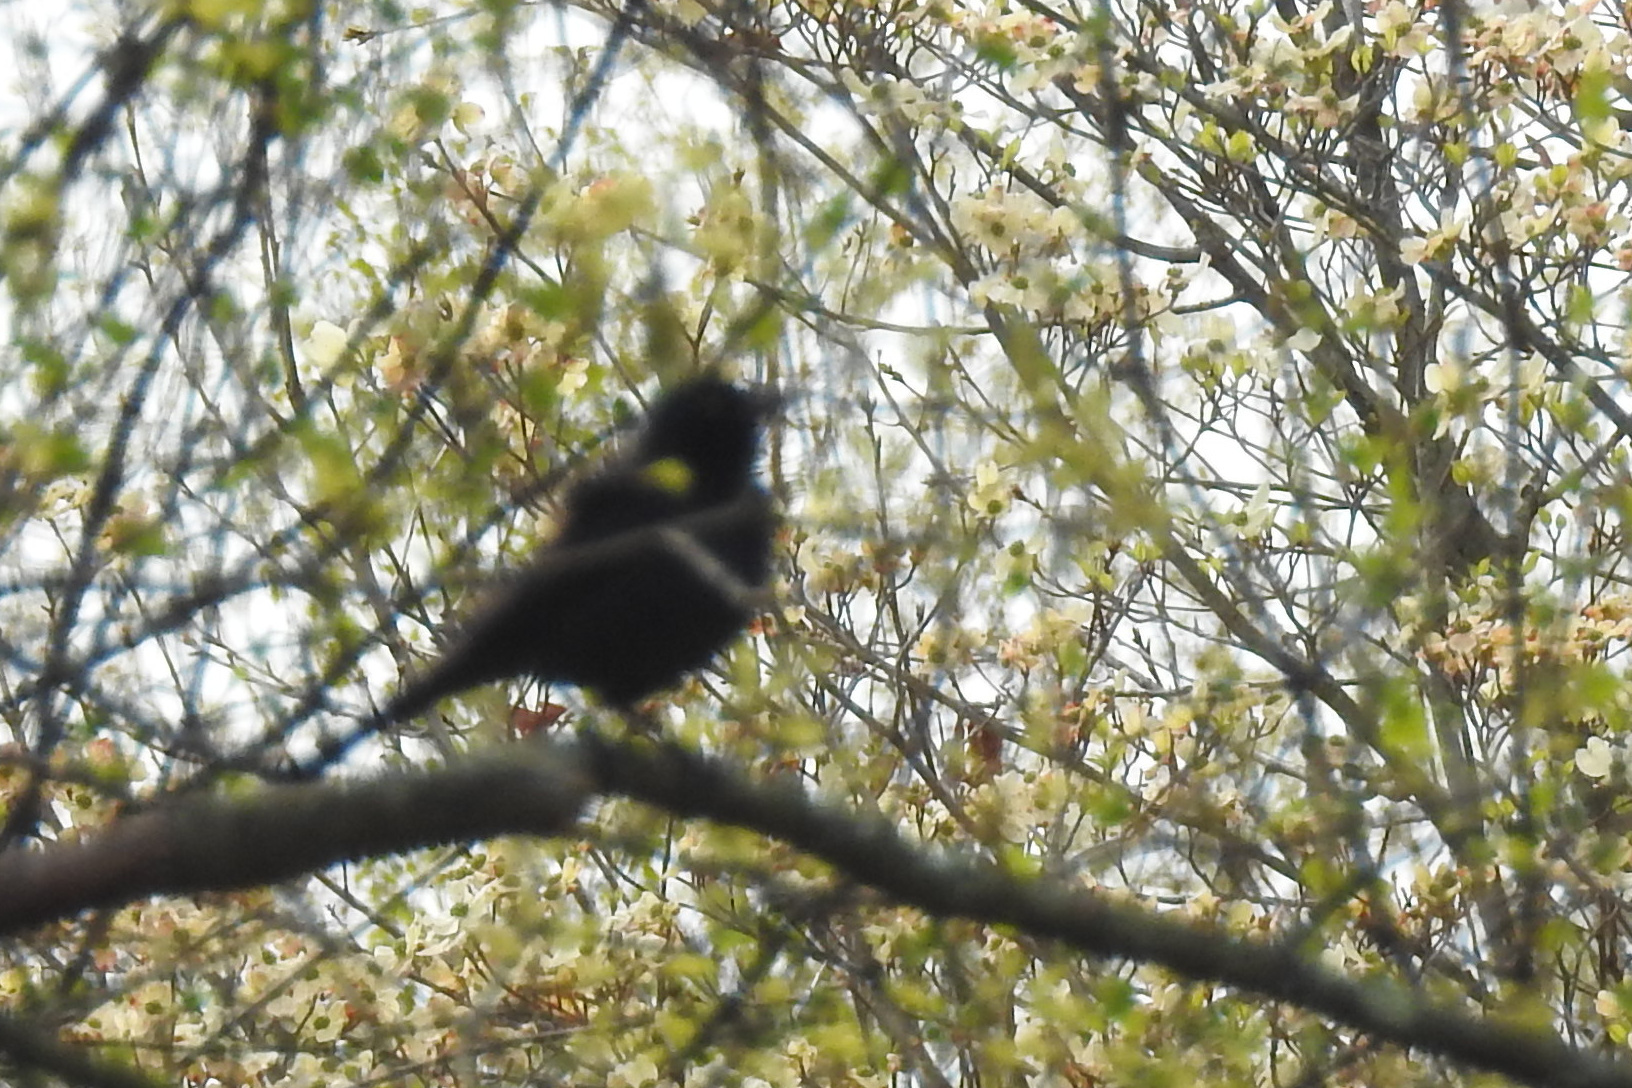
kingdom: Animalia
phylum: Chordata
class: Aves
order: Passeriformes
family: Icteridae
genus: Quiscalus
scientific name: Quiscalus quiscula
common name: Common grackle
